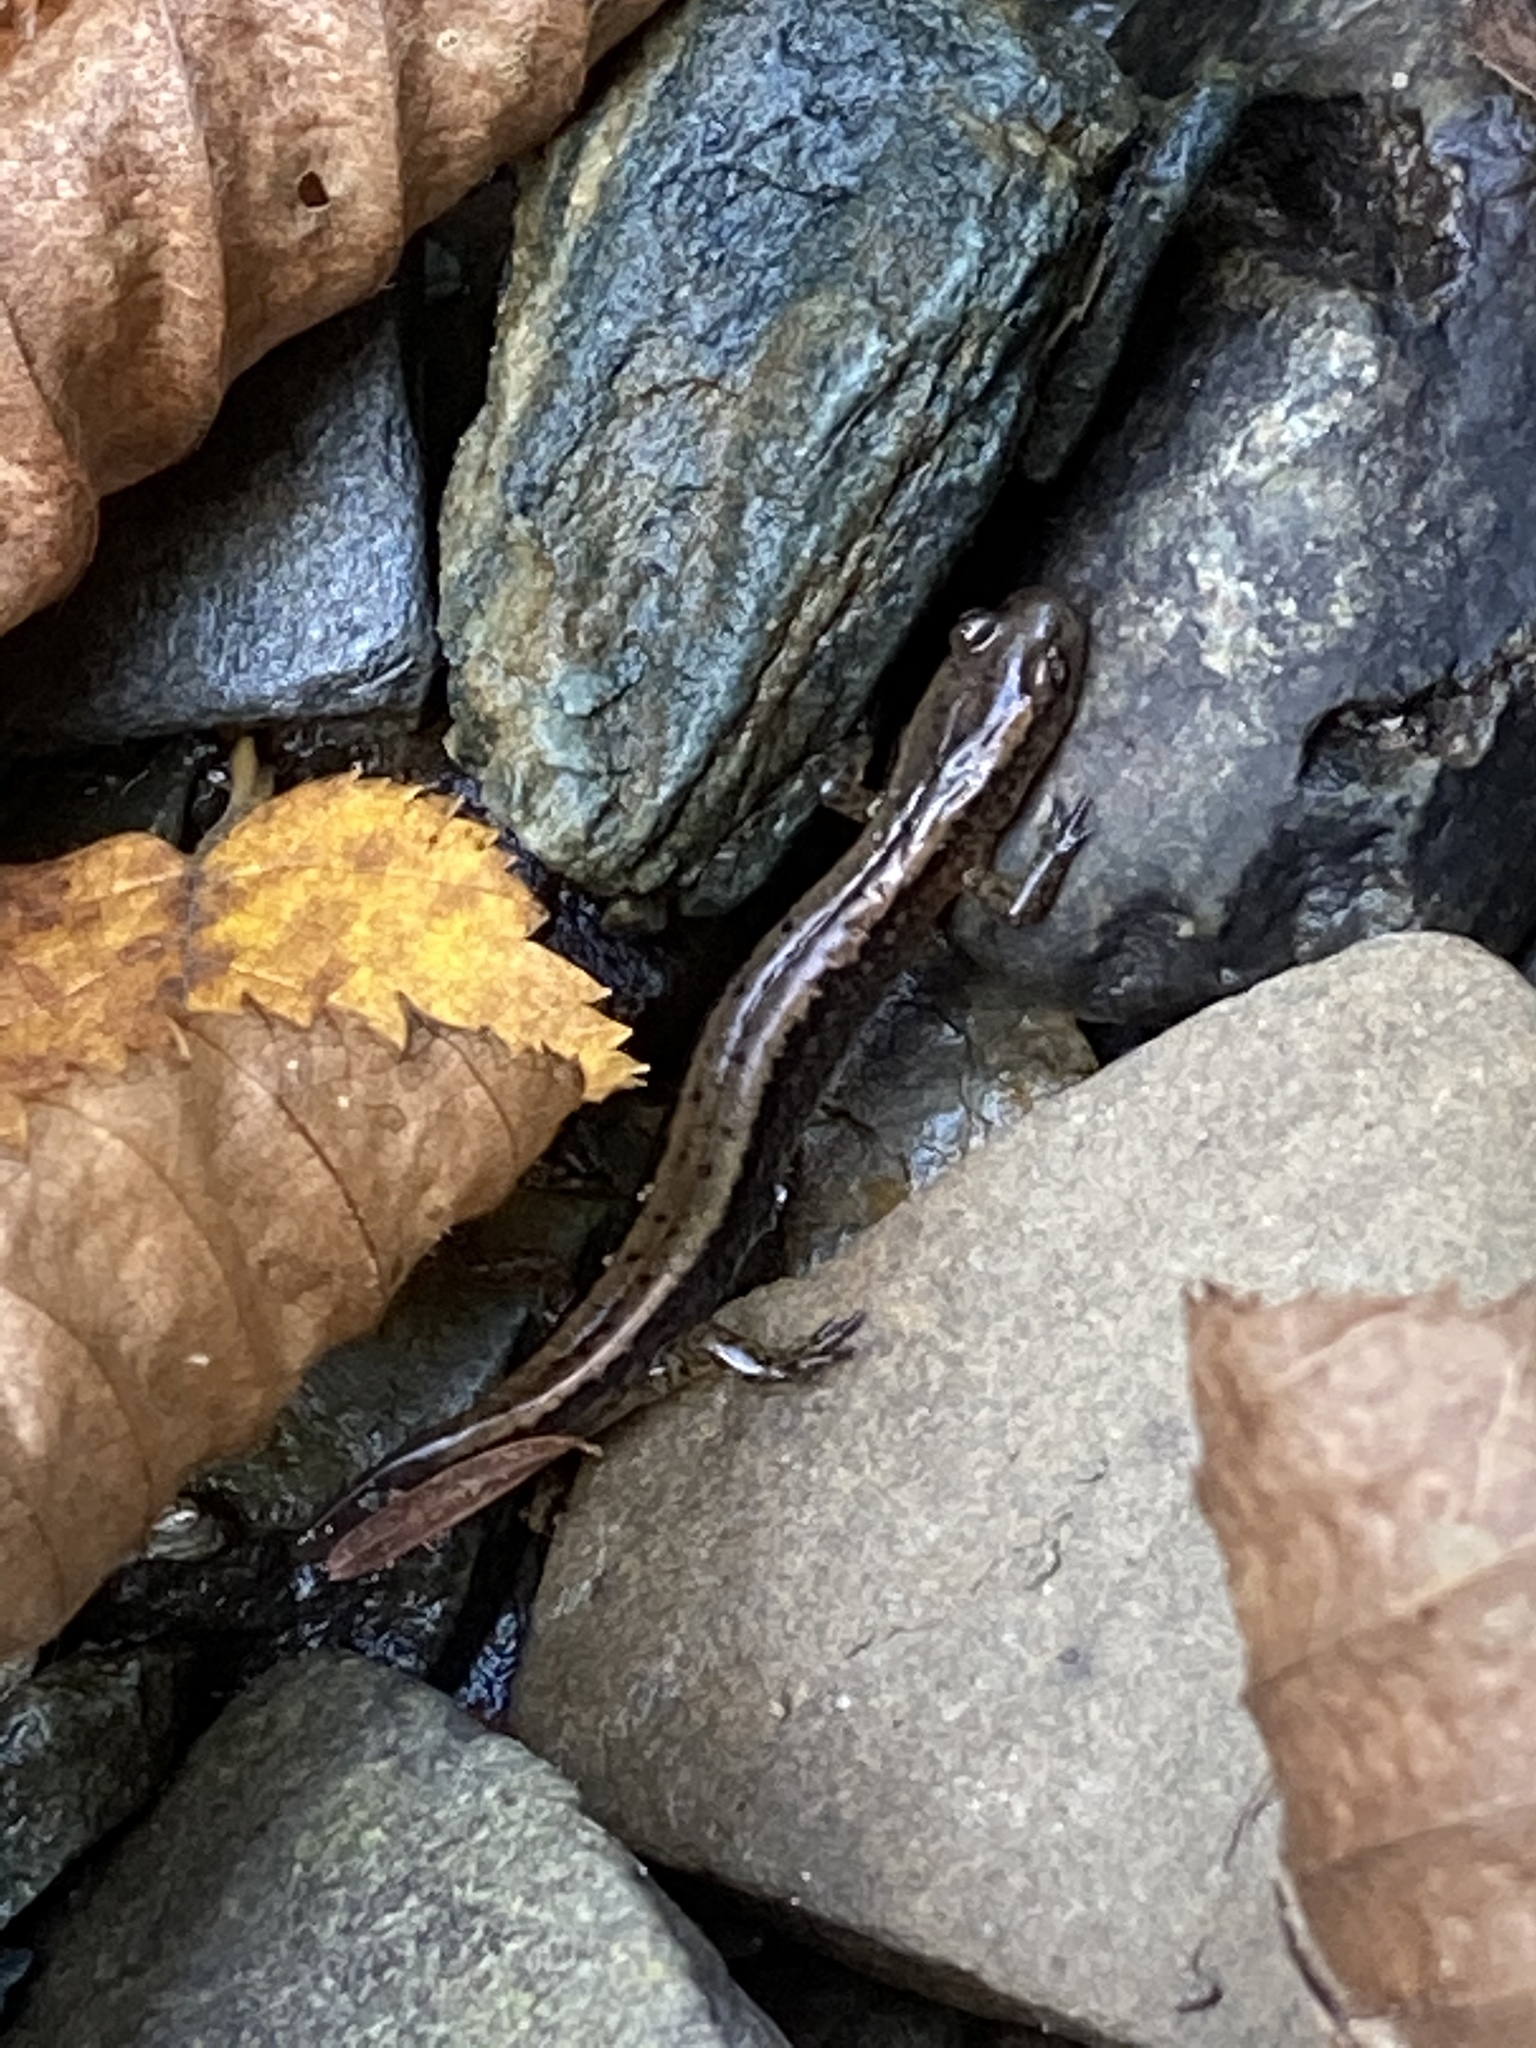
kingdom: Animalia
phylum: Chordata
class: Amphibia
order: Caudata
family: Plethodontidae
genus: Eurycea
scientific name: Eurycea bislineata
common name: Northern two-lined salamander
